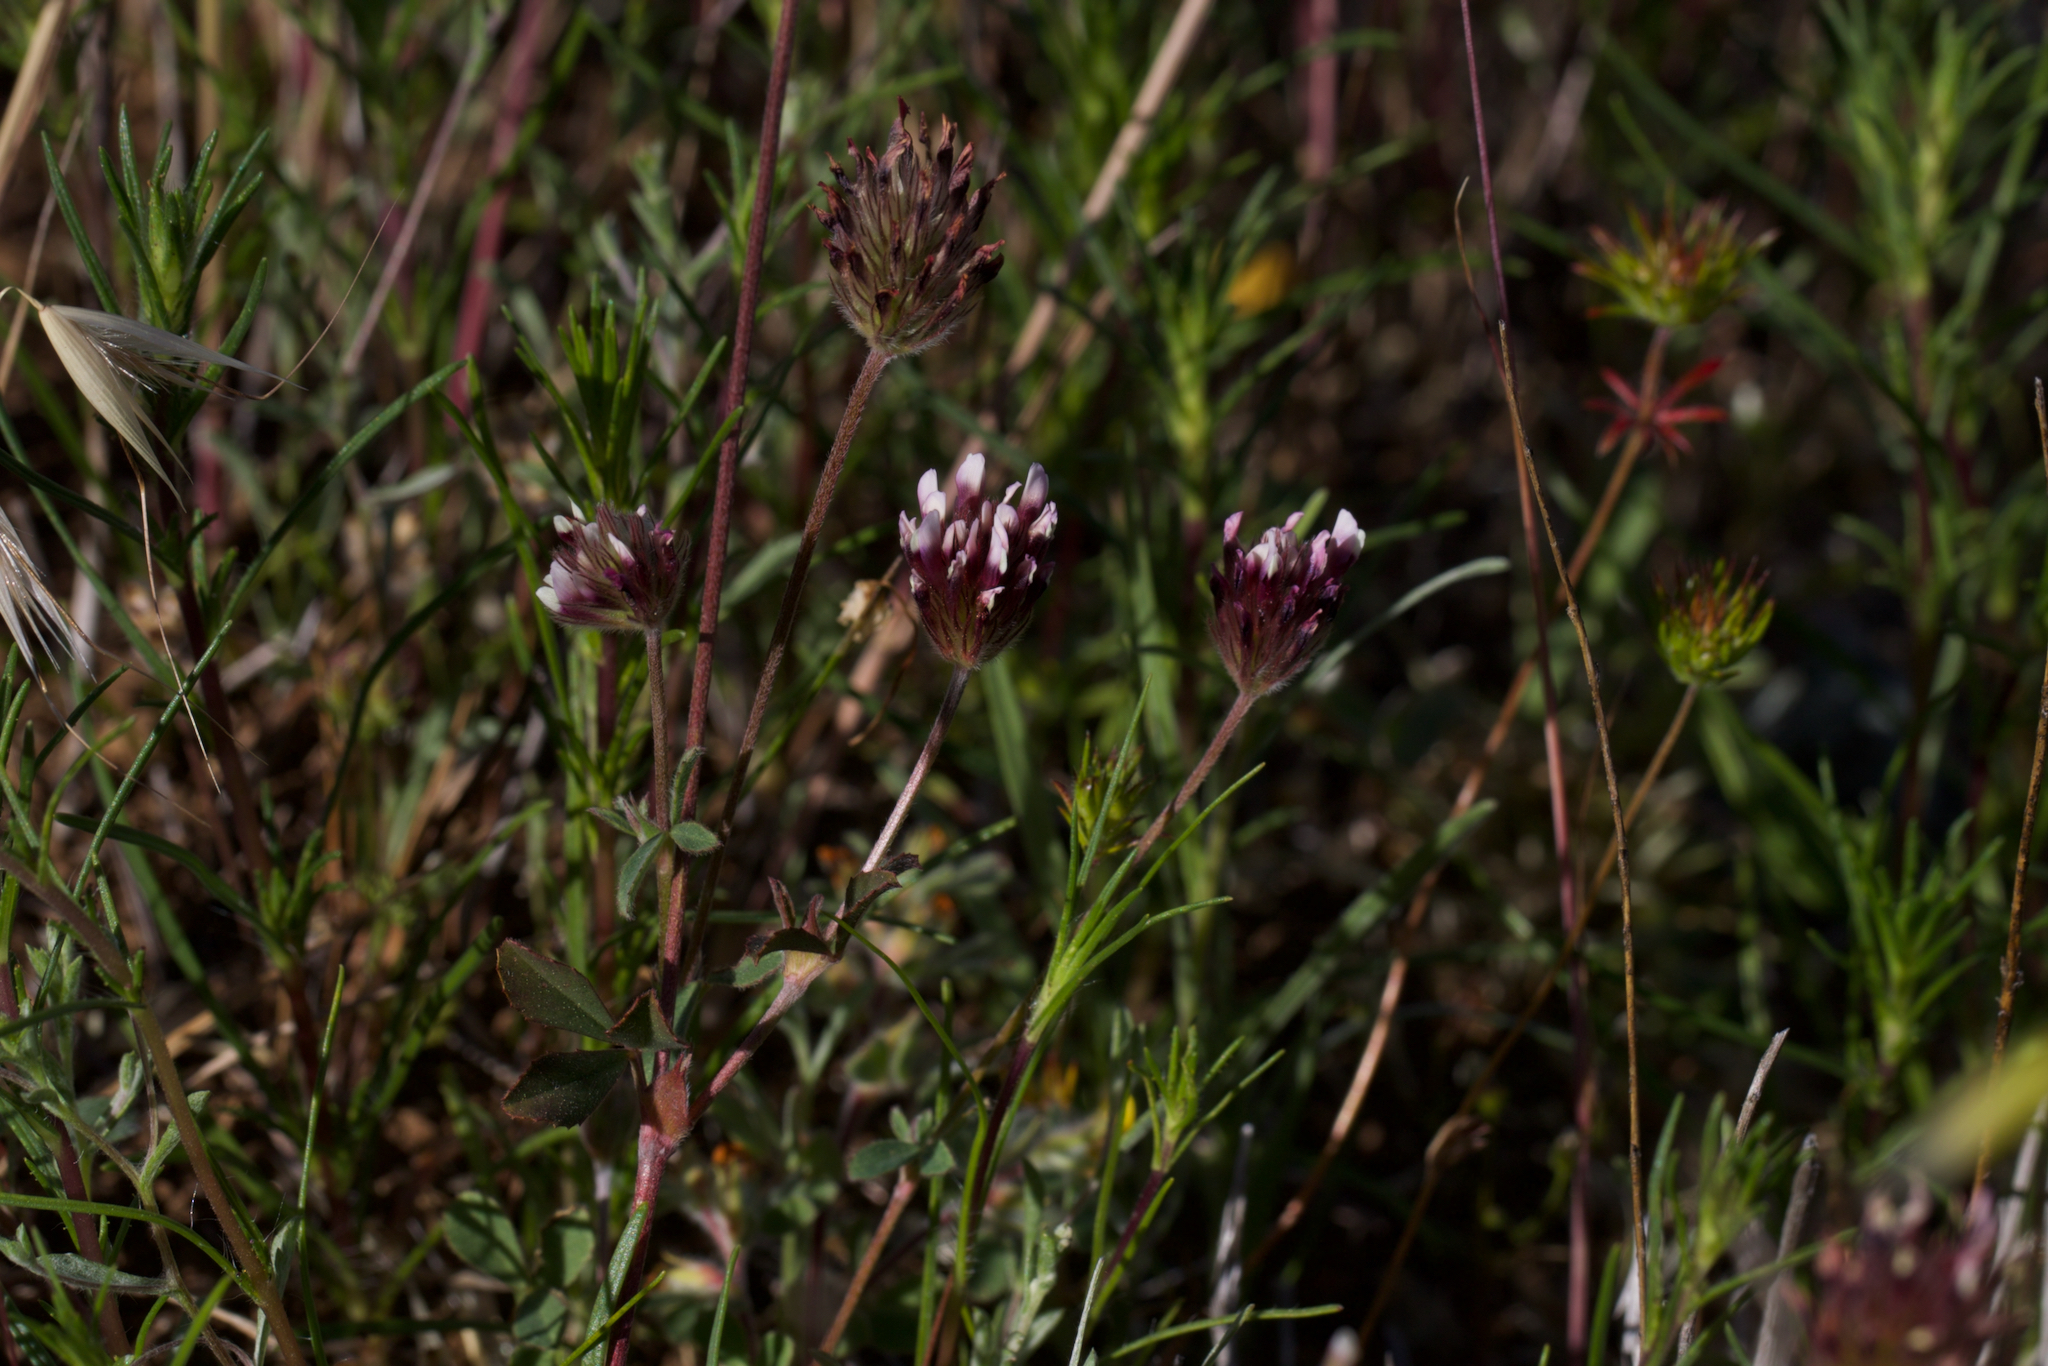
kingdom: Plantae
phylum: Tracheophyta
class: Magnoliopsida
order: Fabales
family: Fabaceae
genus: Trifolium
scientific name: Trifolium dichotomum
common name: Branched indian clover
